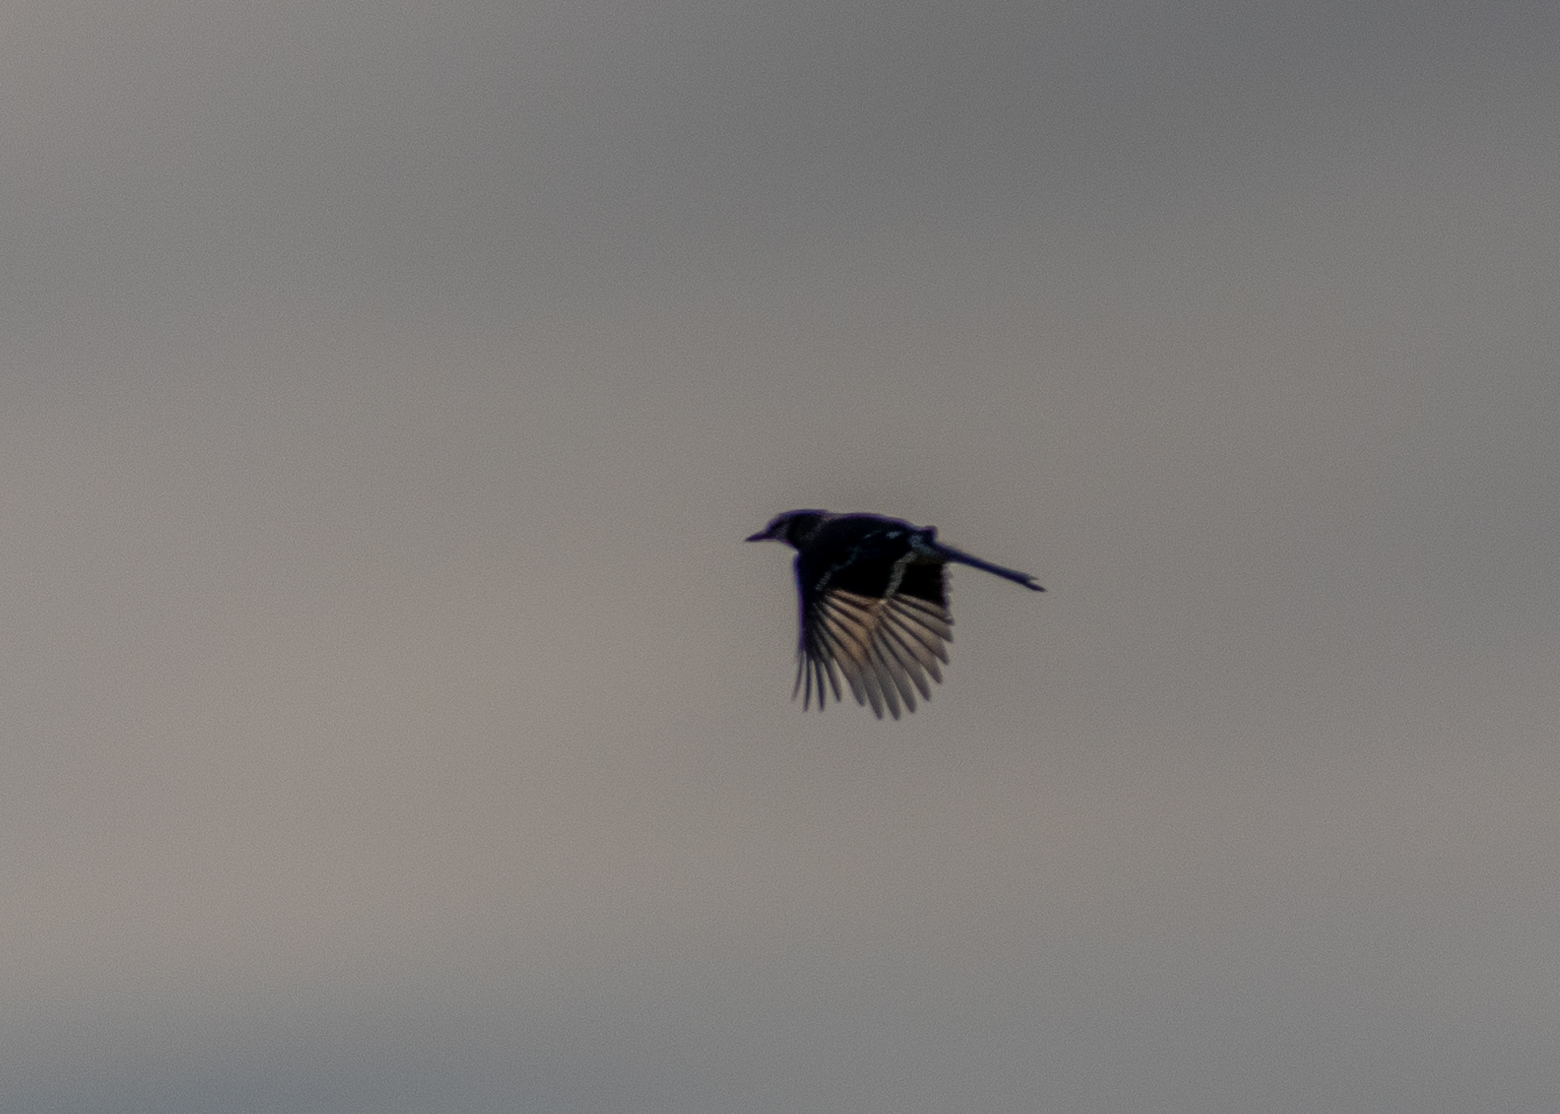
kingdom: Animalia
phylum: Chordata
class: Aves
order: Passeriformes
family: Corvidae
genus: Cyanocitta
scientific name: Cyanocitta cristata
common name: Blue jay
